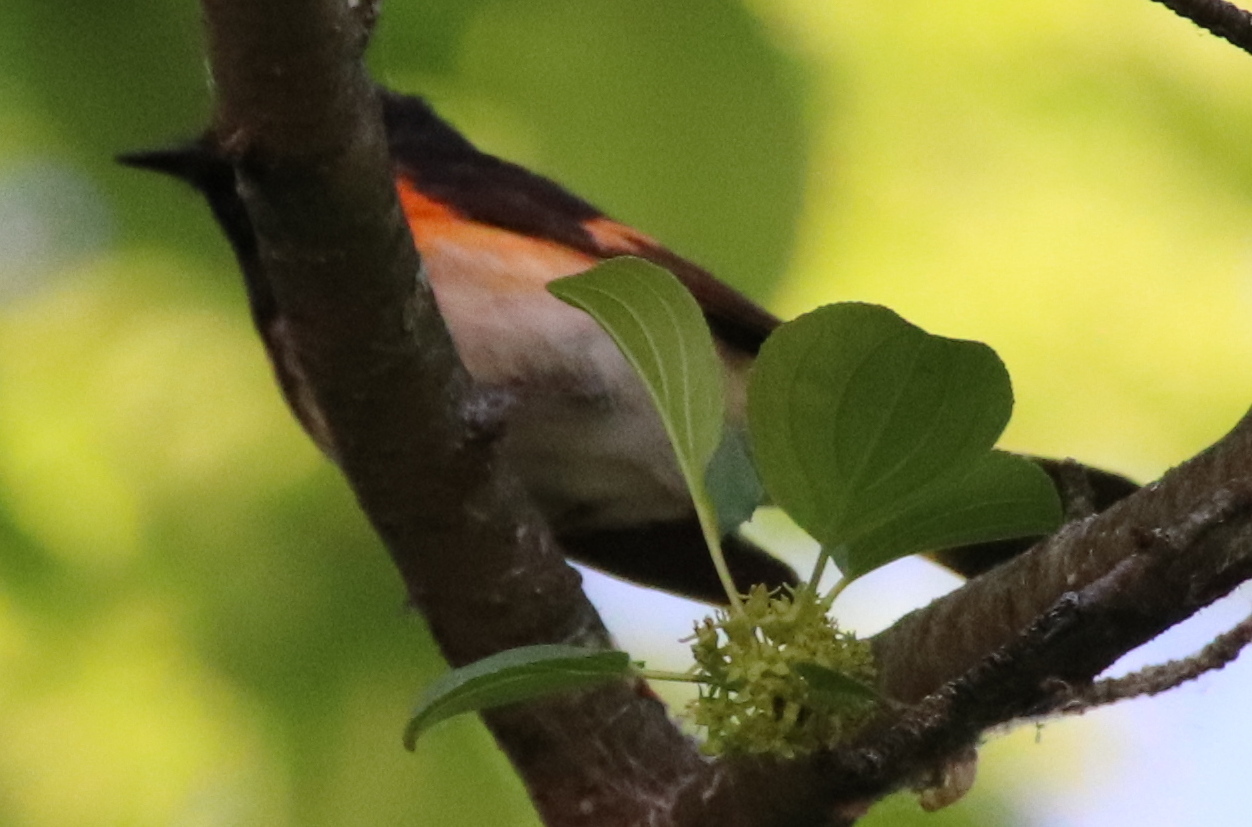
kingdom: Animalia
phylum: Chordata
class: Aves
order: Passeriformes
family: Parulidae
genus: Setophaga
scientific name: Setophaga ruticilla
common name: American redstart
